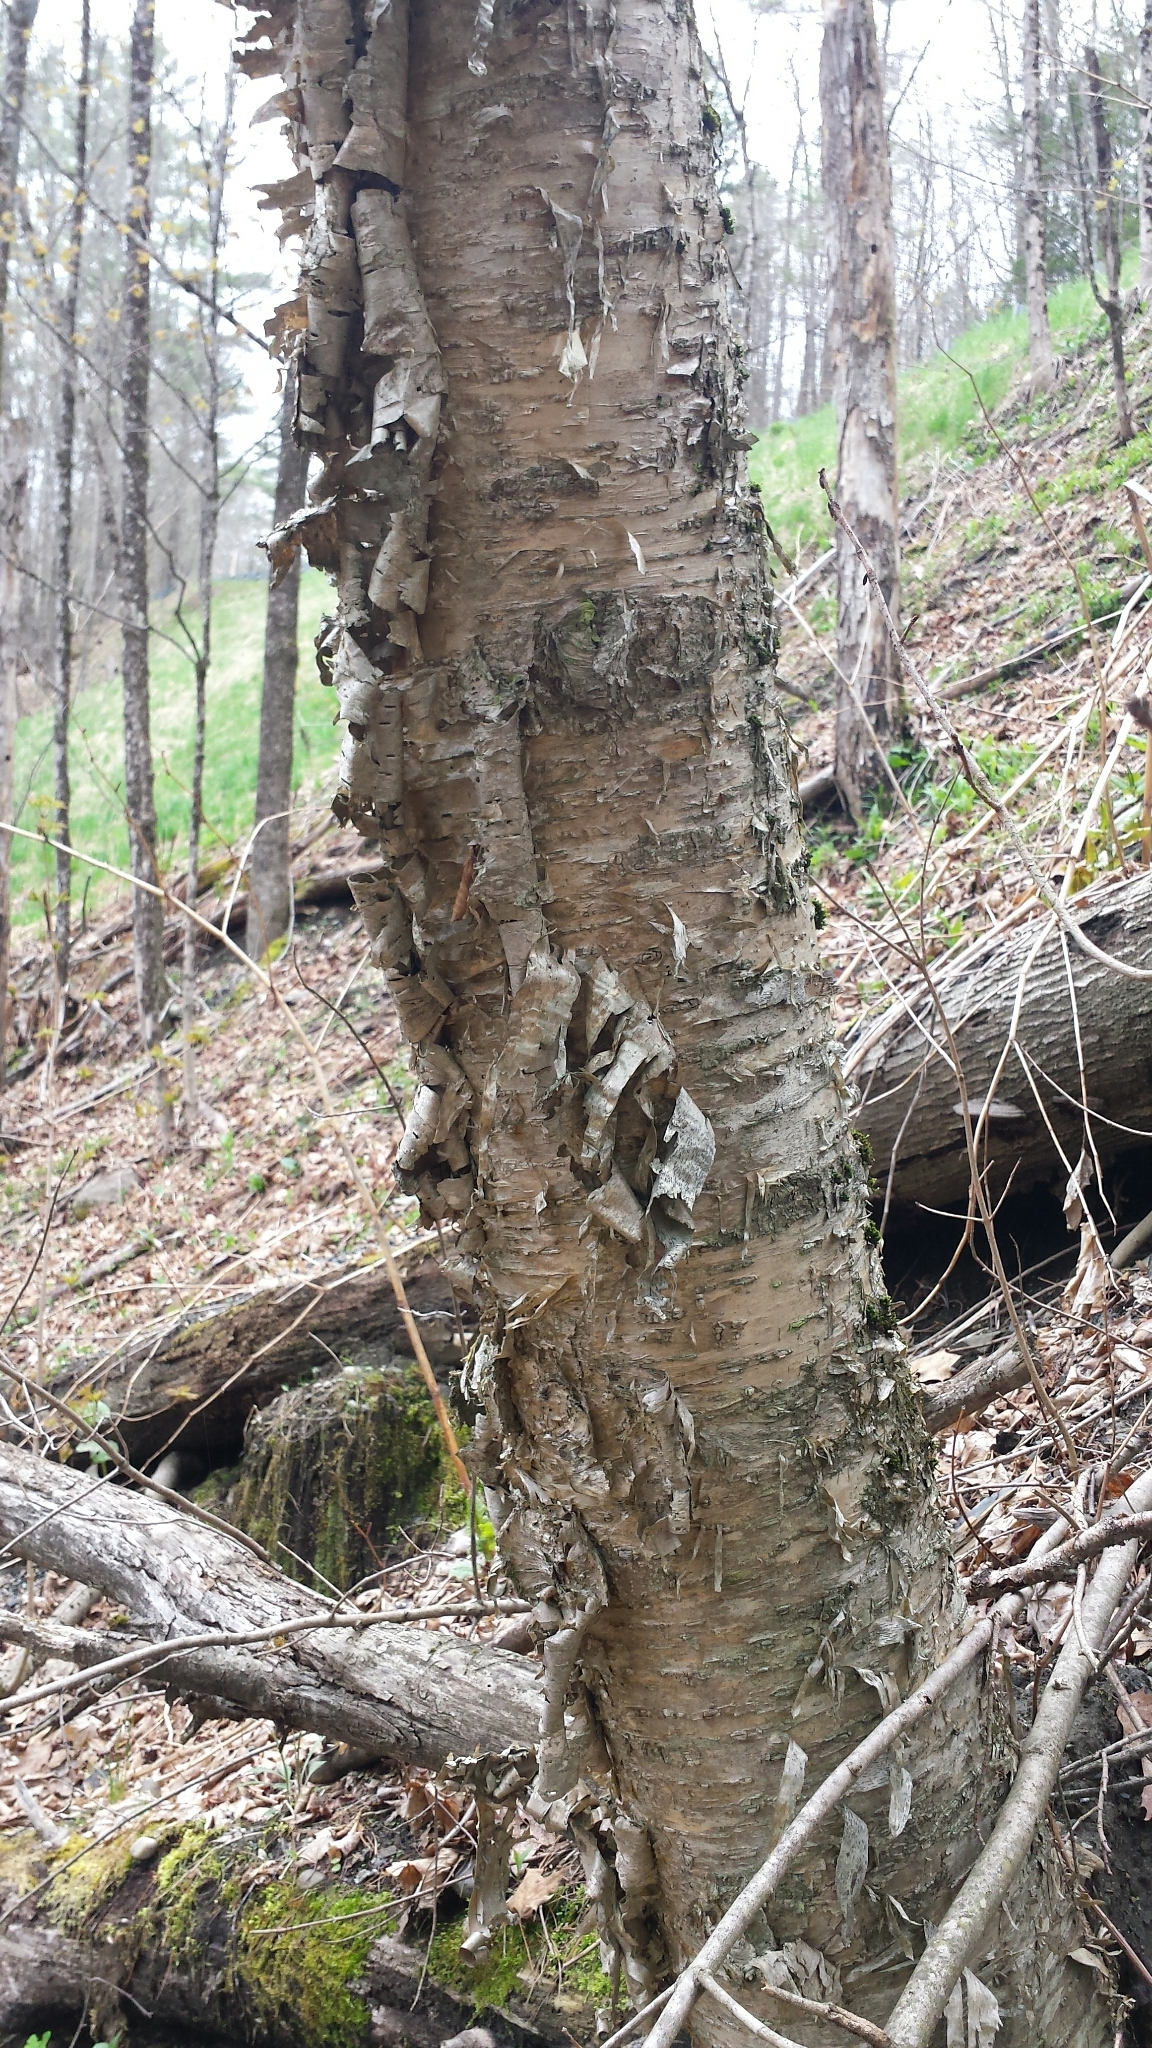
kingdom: Plantae
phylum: Tracheophyta
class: Magnoliopsida
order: Fagales
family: Betulaceae
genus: Betula
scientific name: Betula alleghaniensis
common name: Yellow birch
